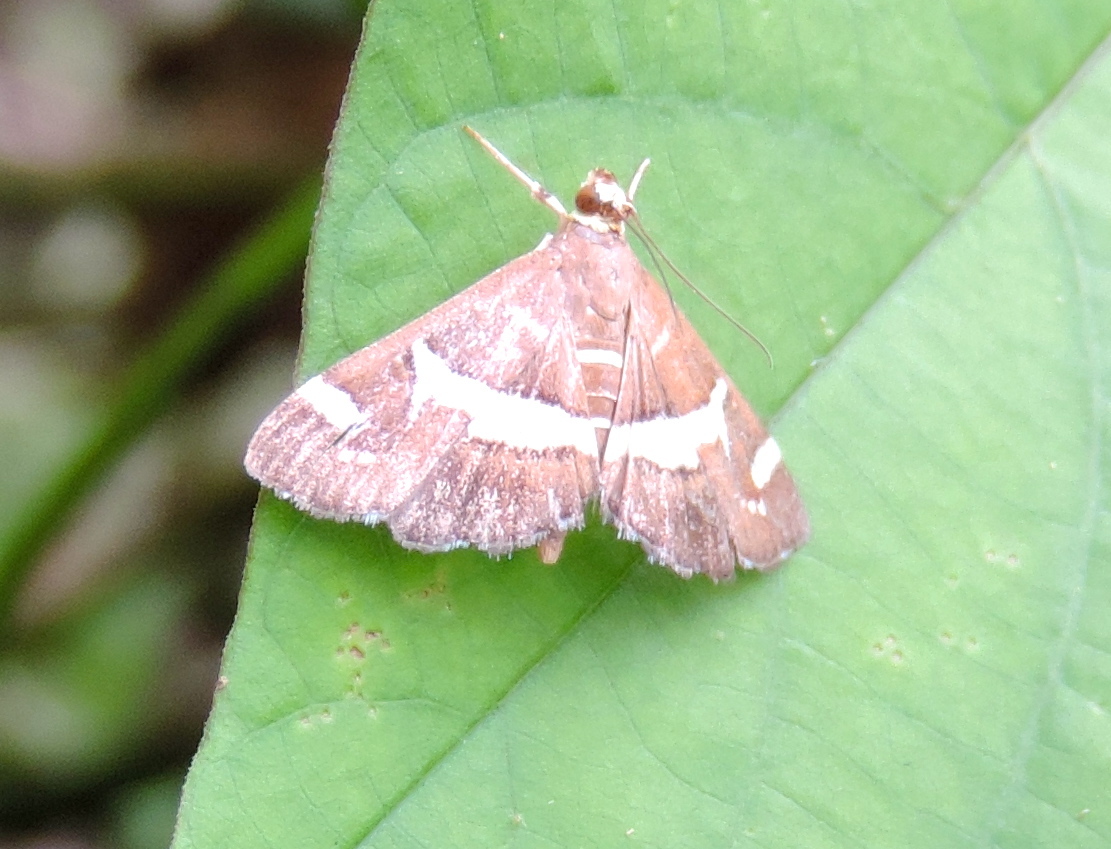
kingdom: Animalia
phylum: Arthropoda
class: Insecta
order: Lepidoptera
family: Crambidae
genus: Spoladea
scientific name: Spoladea recurvalis
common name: Beet webworm moth
